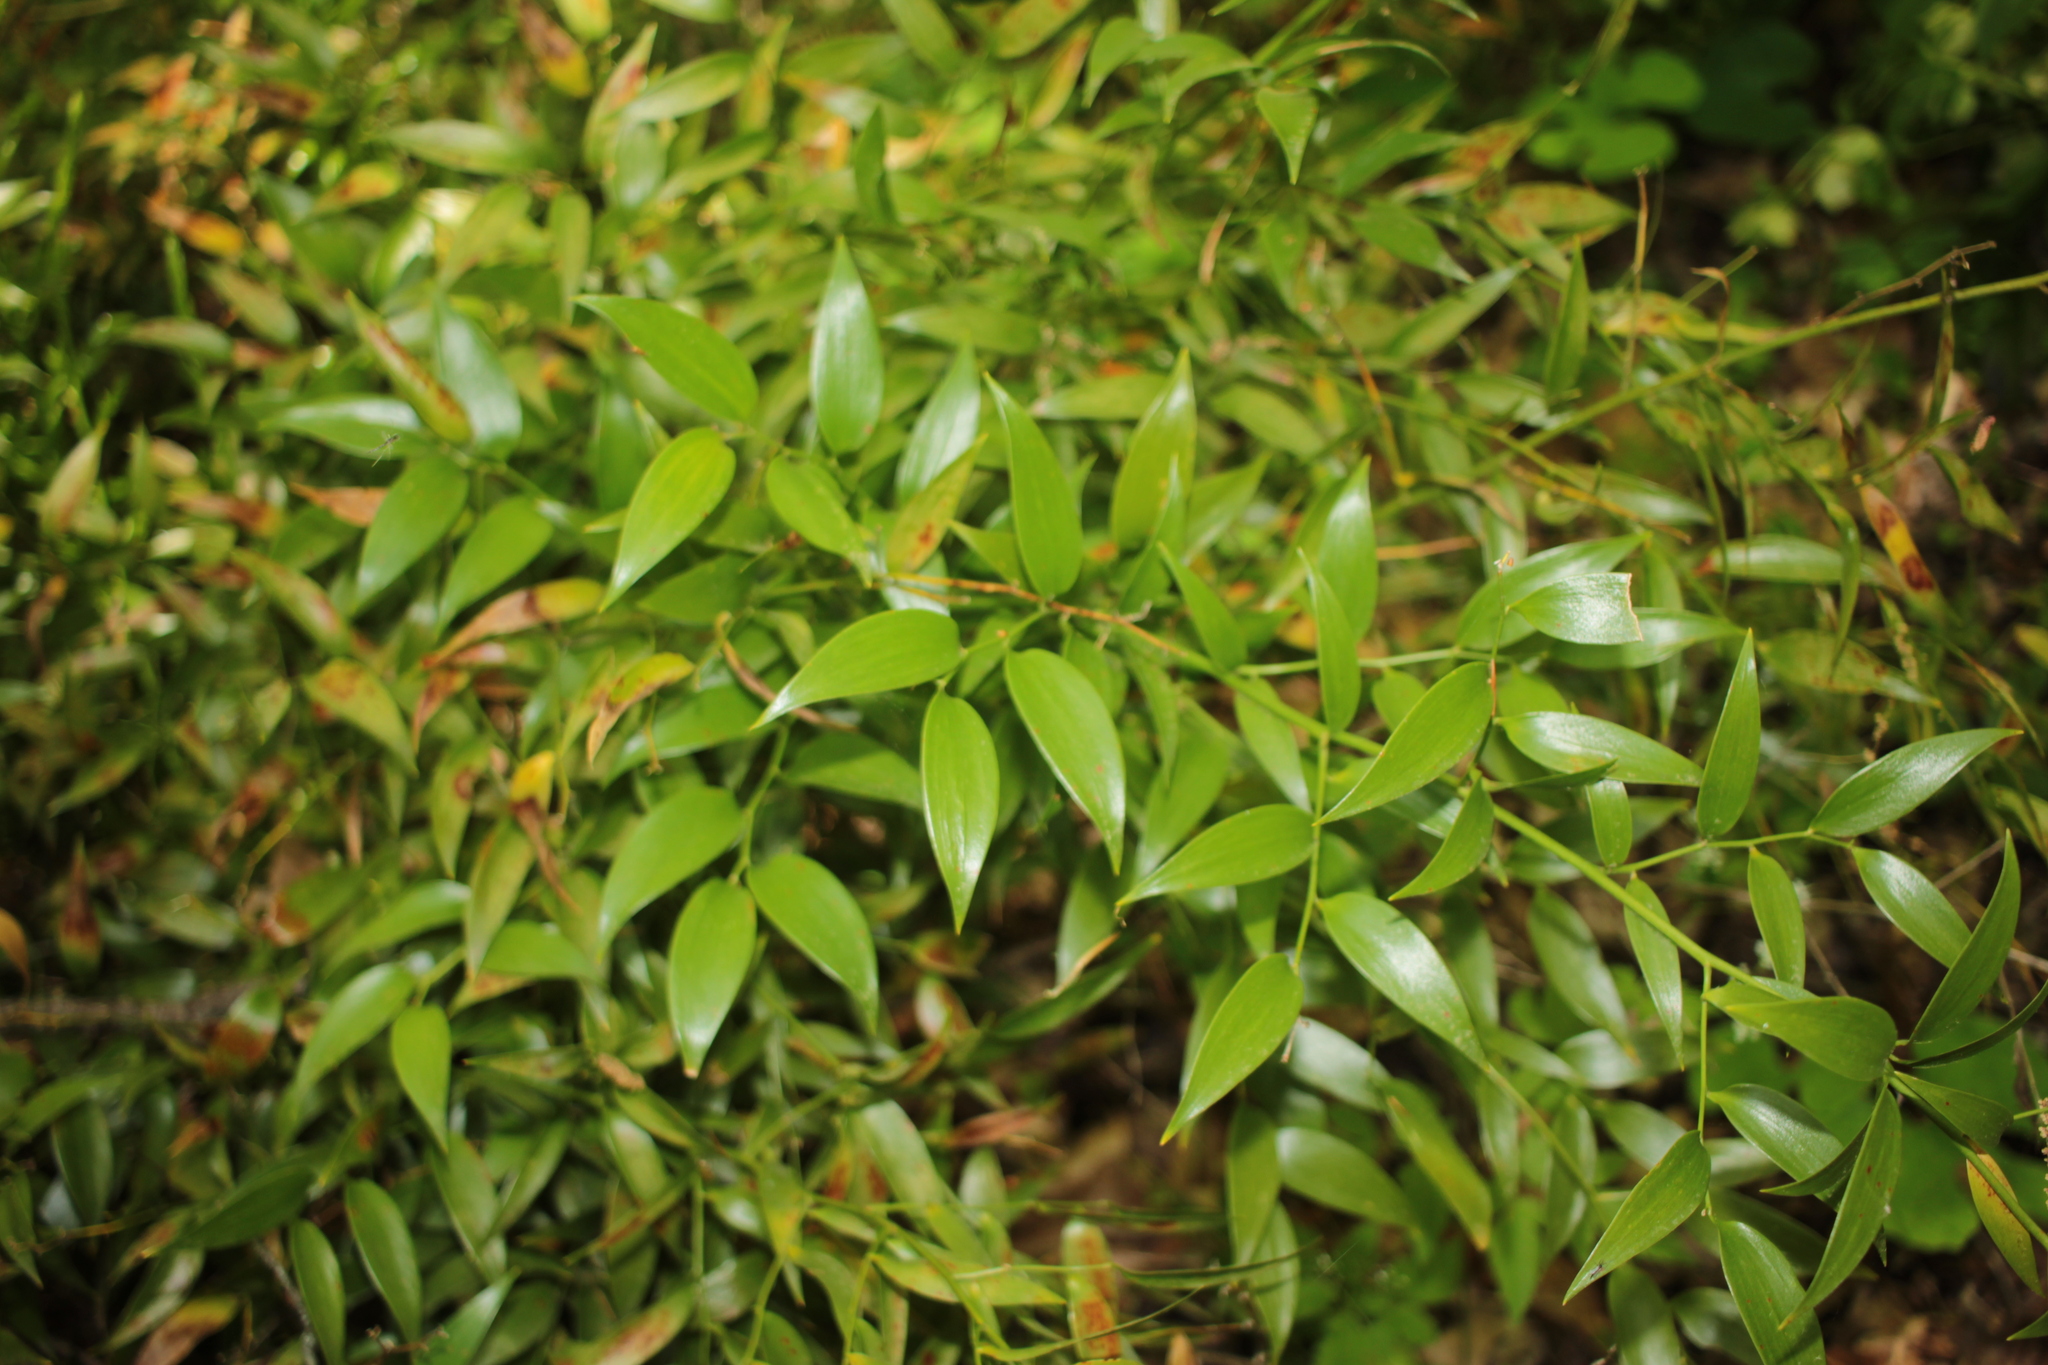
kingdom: Plantae
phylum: Tracheophyta
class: Liliopsida
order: Asparagales
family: Asparagaceae
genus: Danae
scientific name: Danae racemosa
